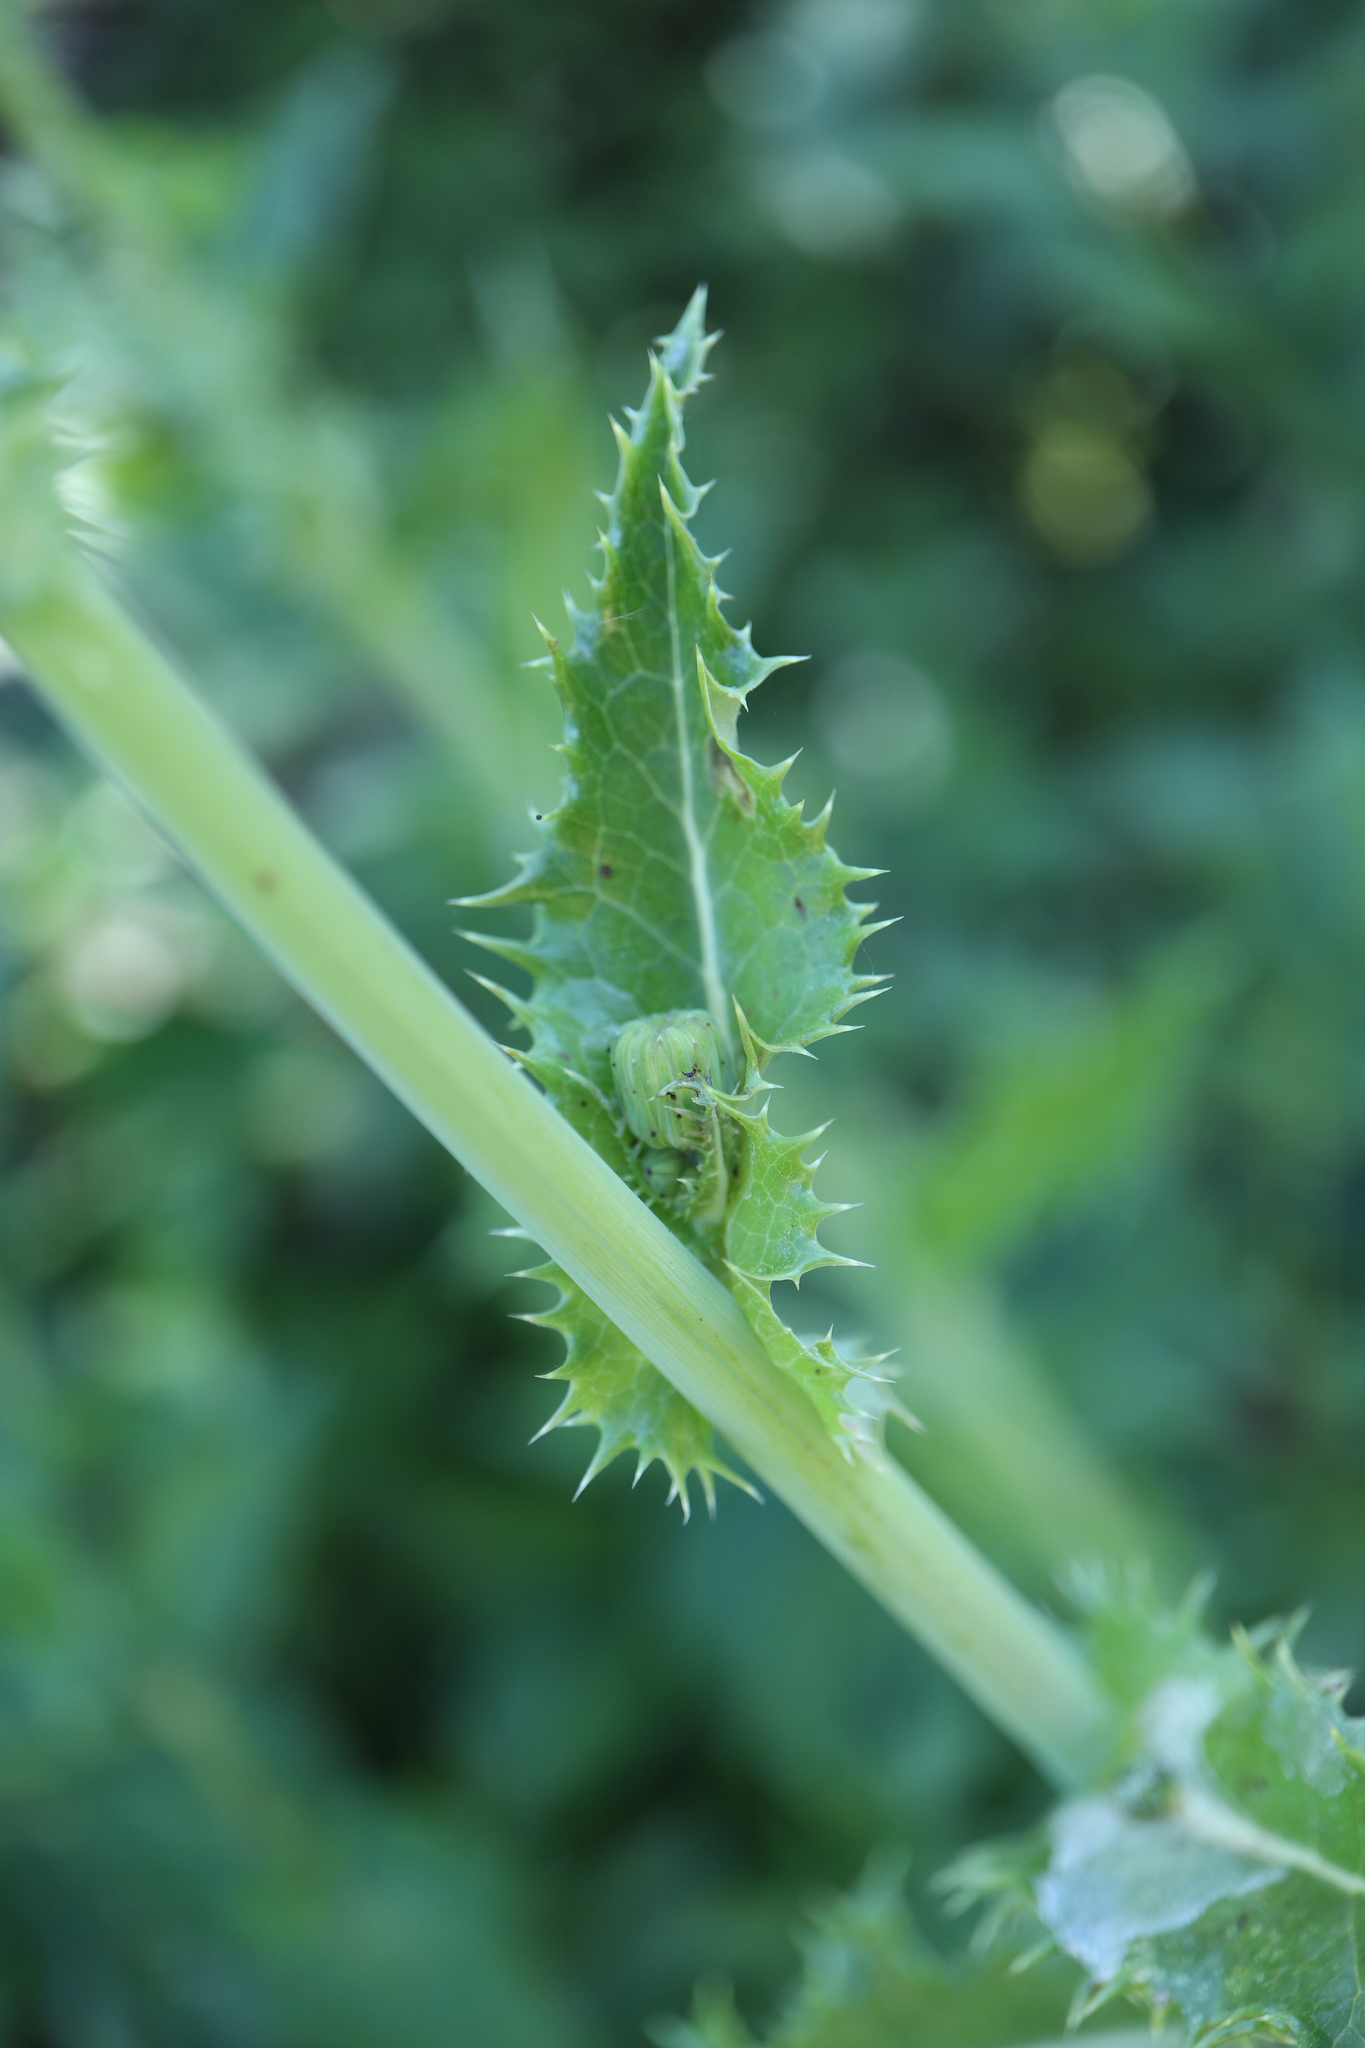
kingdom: Plantae
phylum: Tracheophyta
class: Magnoliopsida
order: Asterales
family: Asteraceae
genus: Sonchus
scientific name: Sonchus asper
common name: Prickly sow-thistle
